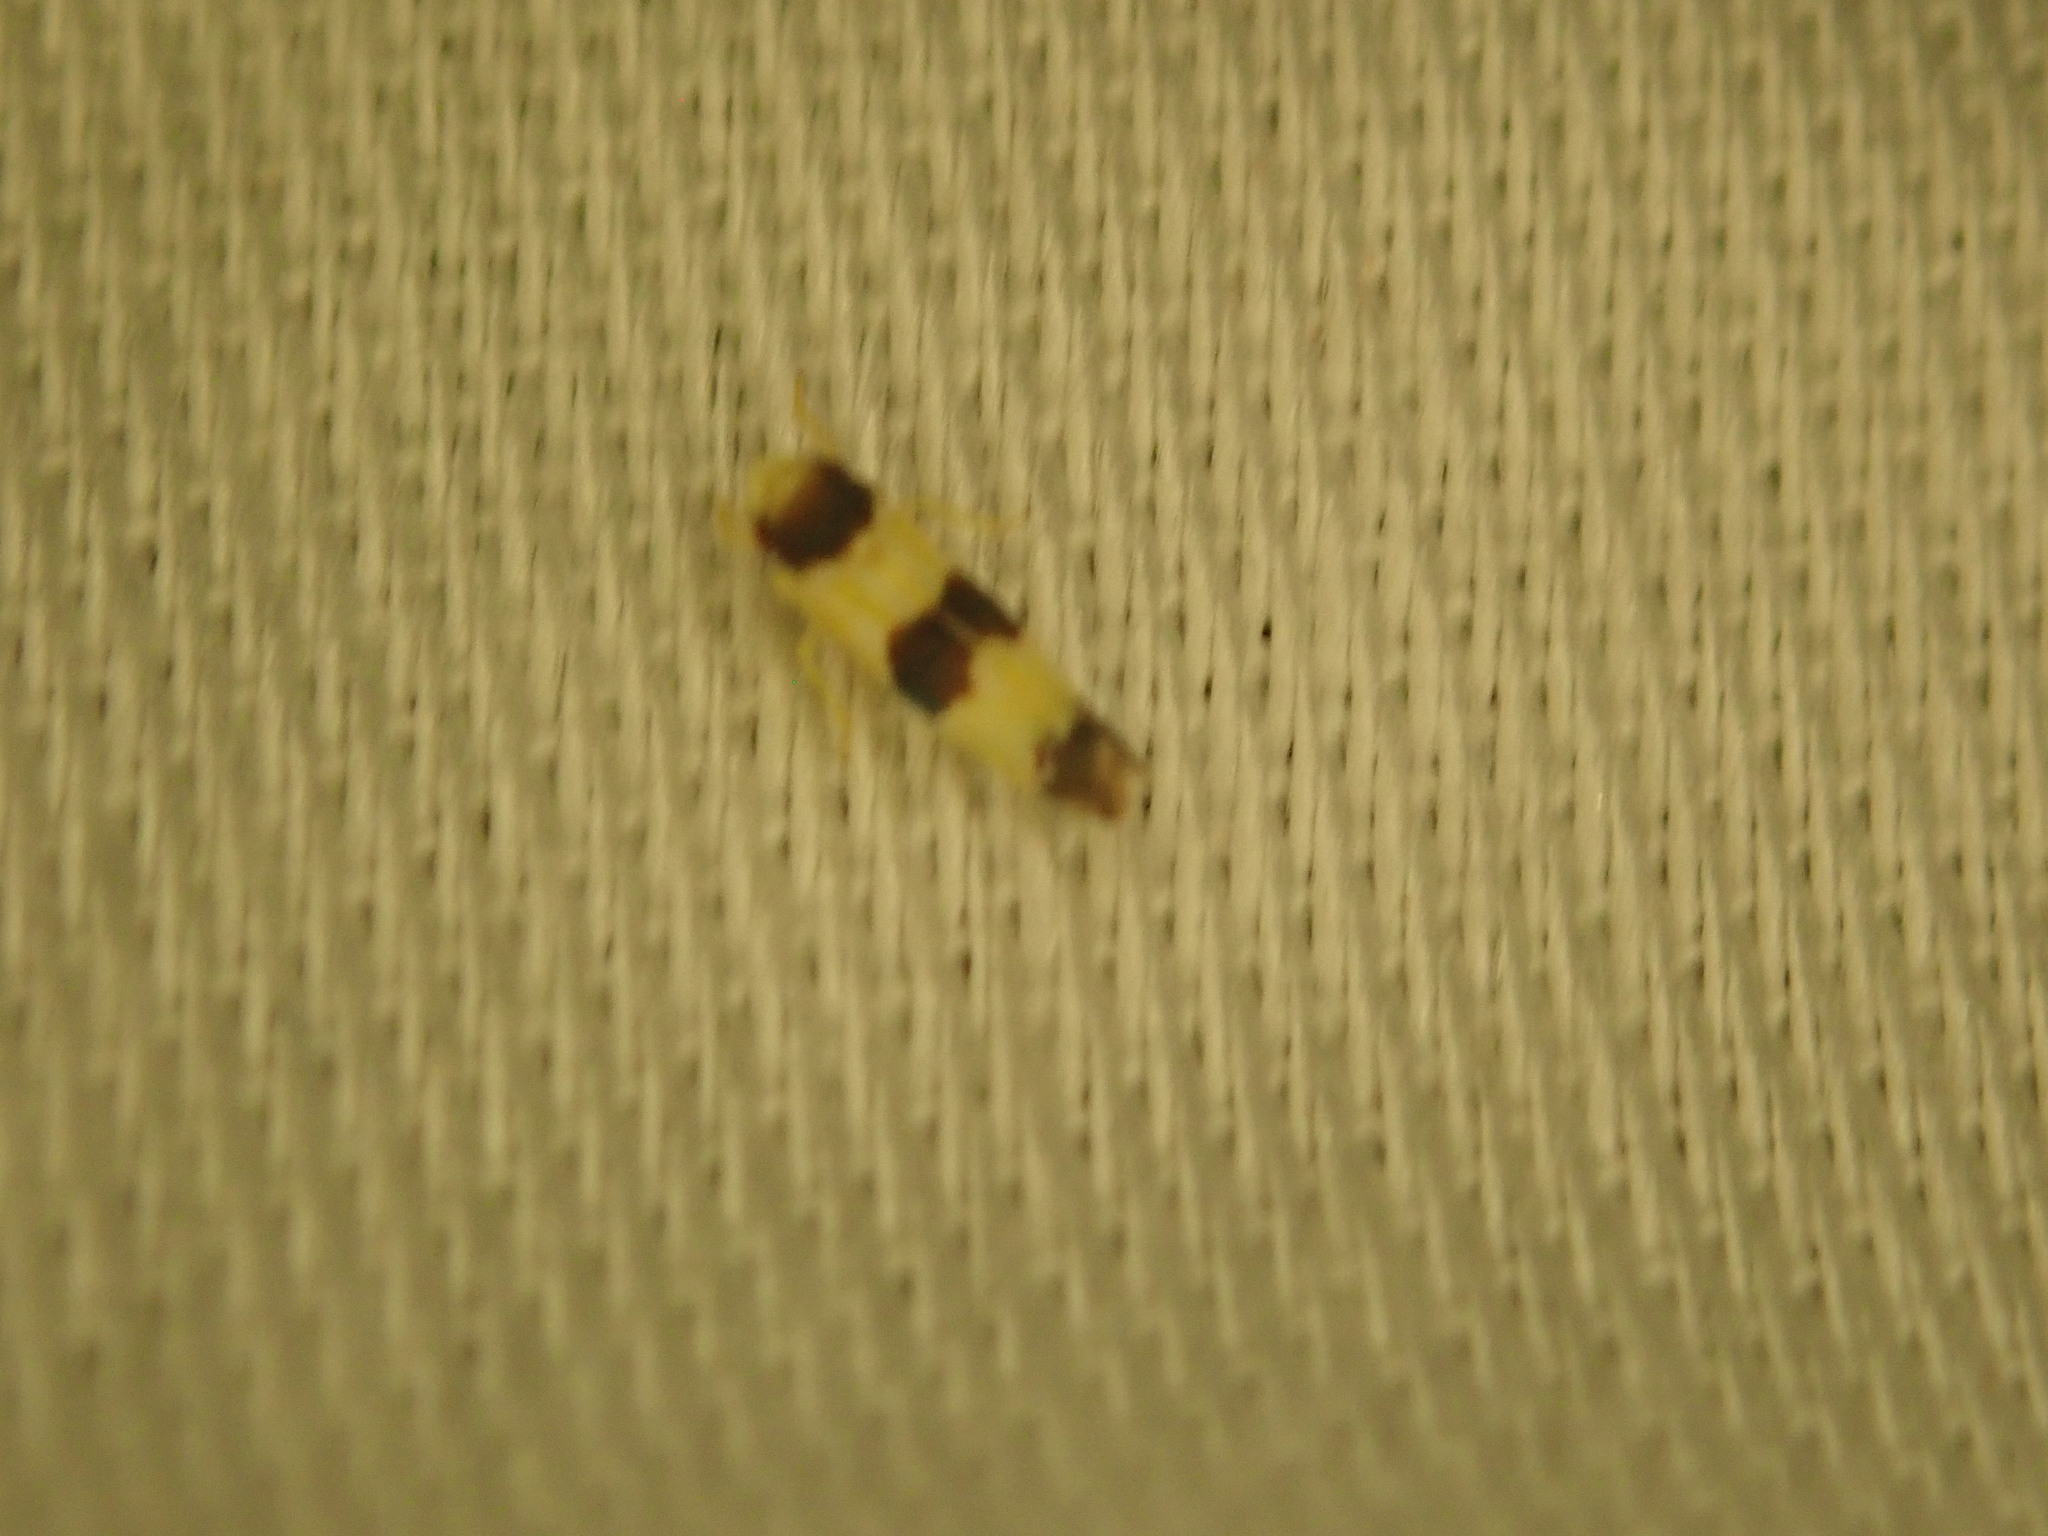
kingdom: Animalia
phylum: Arthropoda
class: Insecta
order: Hemiptera
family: Cicadellidae
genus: Erythroneura
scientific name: Erythroneura tricincta
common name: The threebanded grape leafhopper
